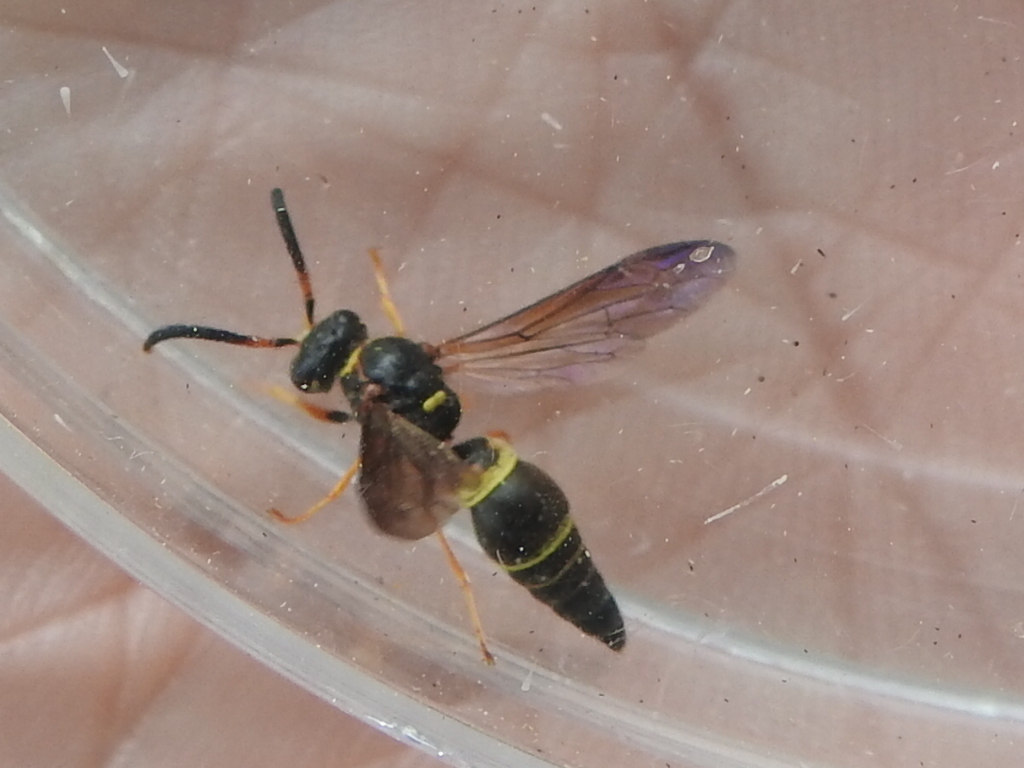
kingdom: Animalia
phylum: Arthropoda
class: Insecta
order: Hymenoptera
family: Vespidae
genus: Ancistrocerus
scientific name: Ancistrocerus unifasciatus
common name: One-banded mason wasp
